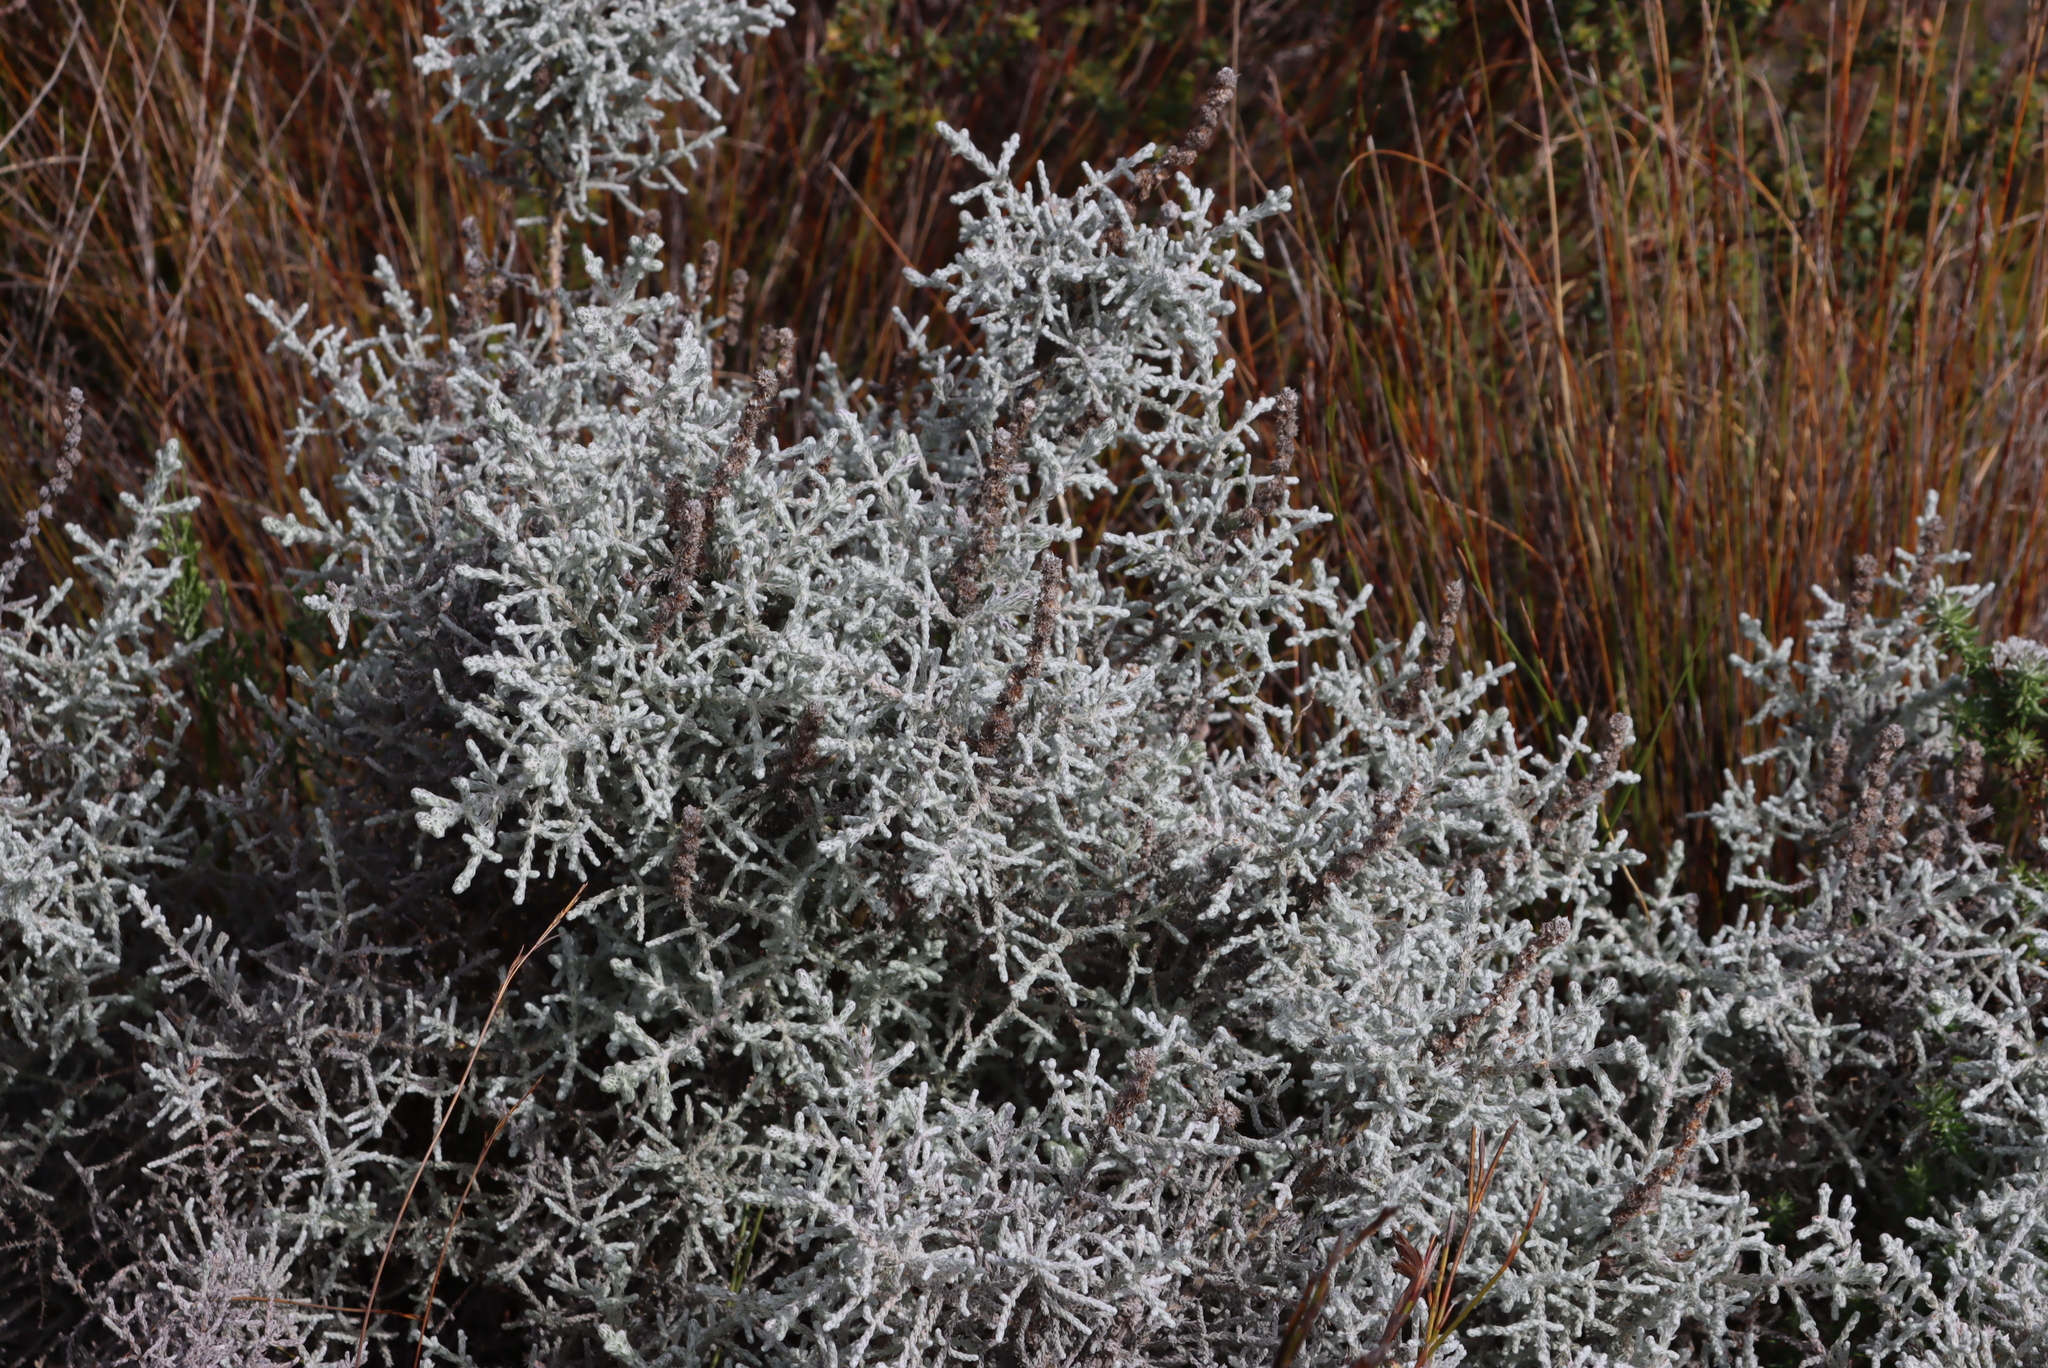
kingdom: Plantae
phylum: Tracheophyta
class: Magnoliopsida
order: Asterales
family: Asteraceae
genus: Seriphium
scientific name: Seriphium plumosum
